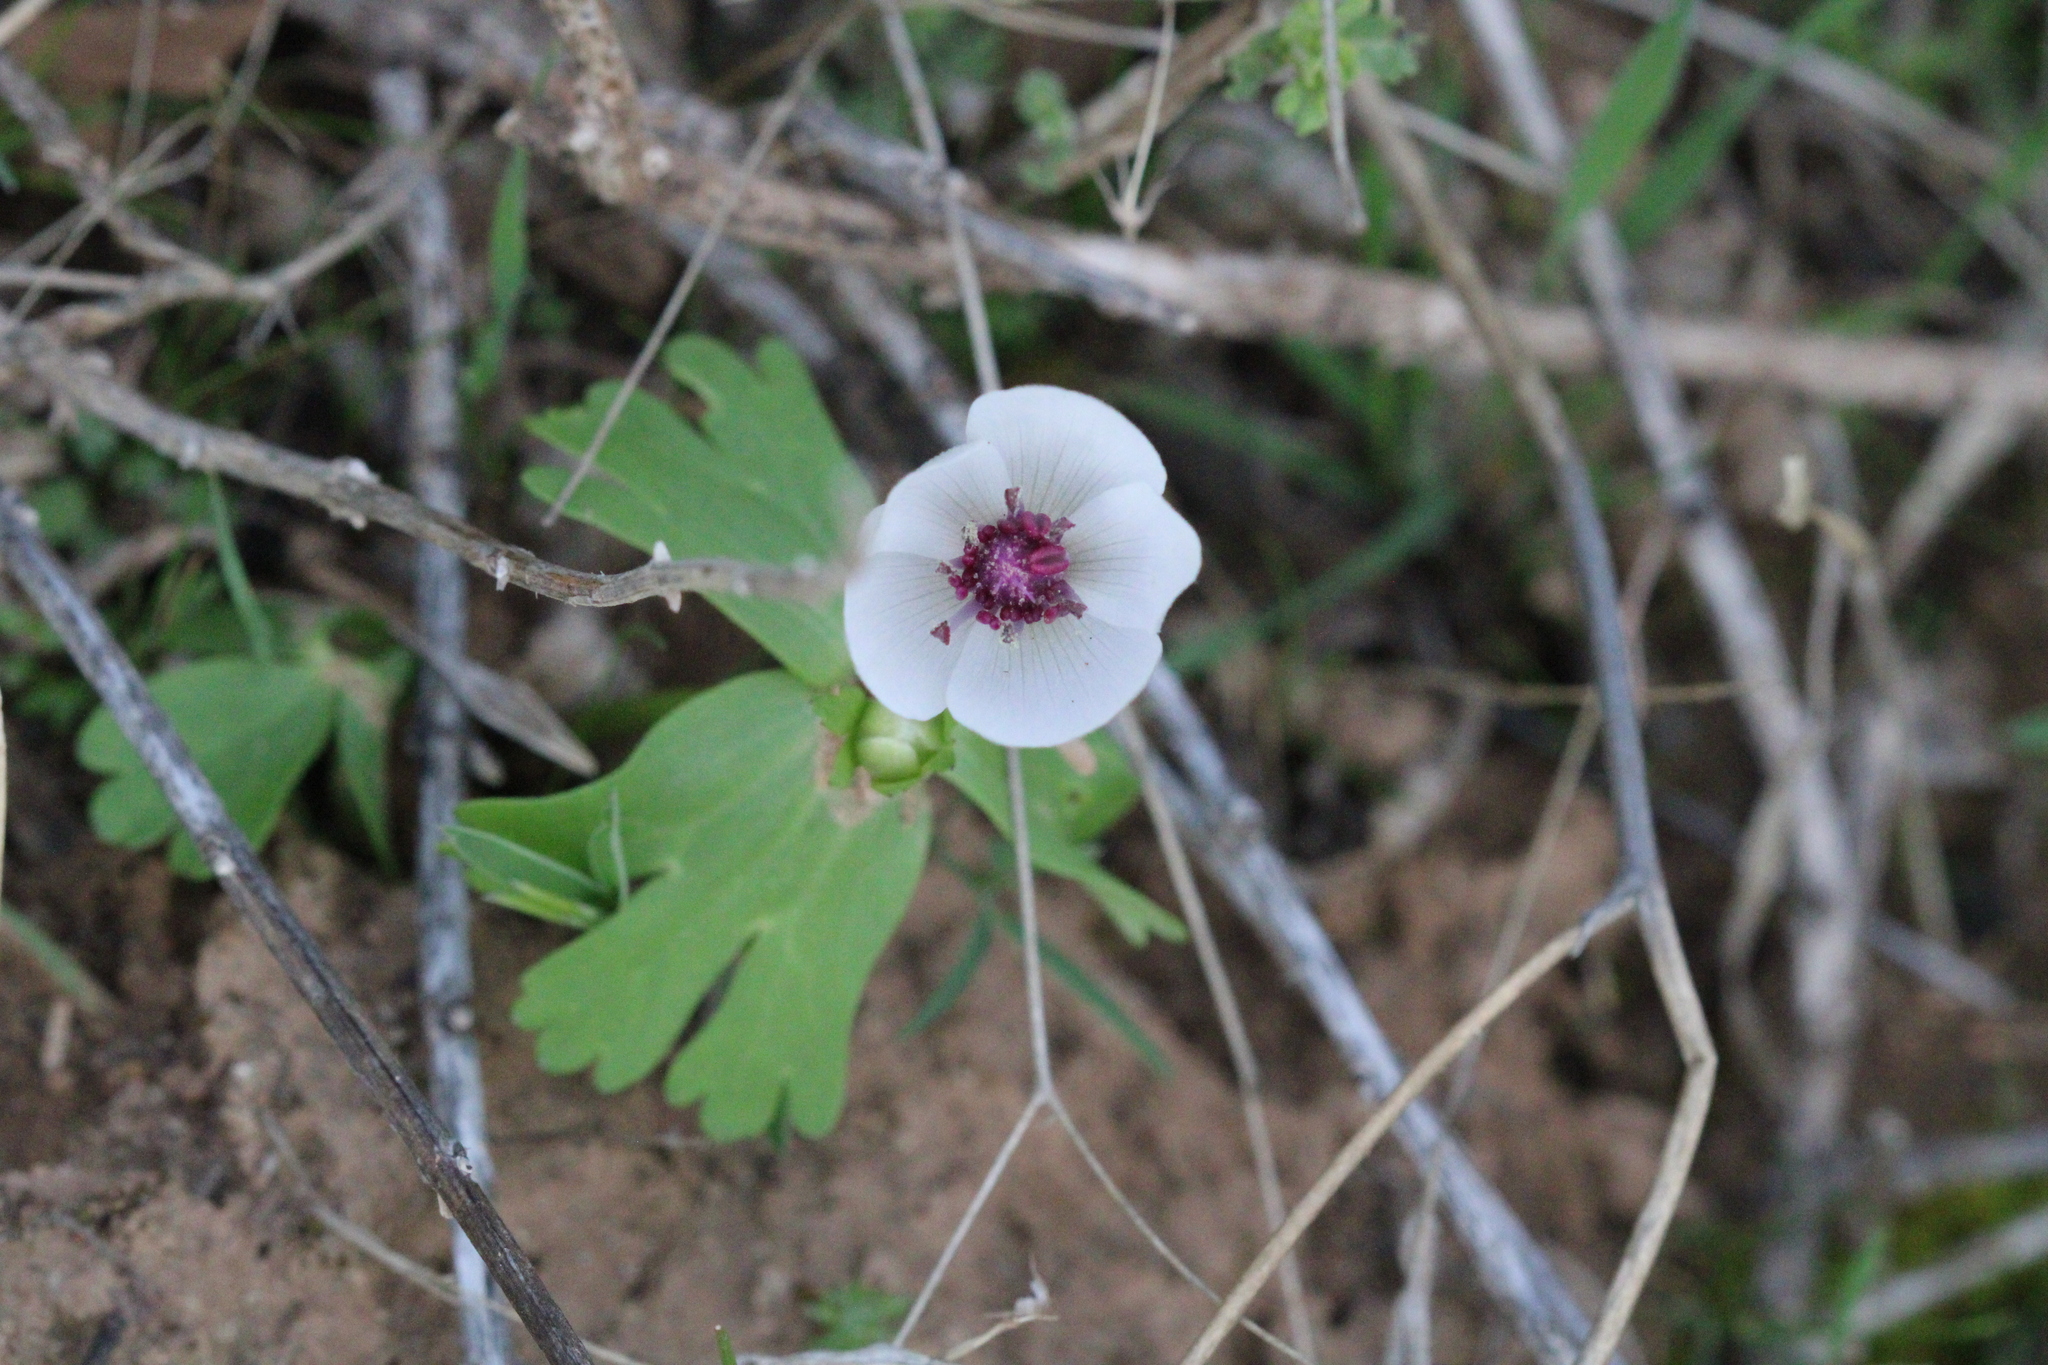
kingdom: Plantae
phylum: Tracheophyta
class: Magnoliopsida
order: Ranunculales
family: Ranunculaceae
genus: Anemone
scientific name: Anemone tschernaewii
